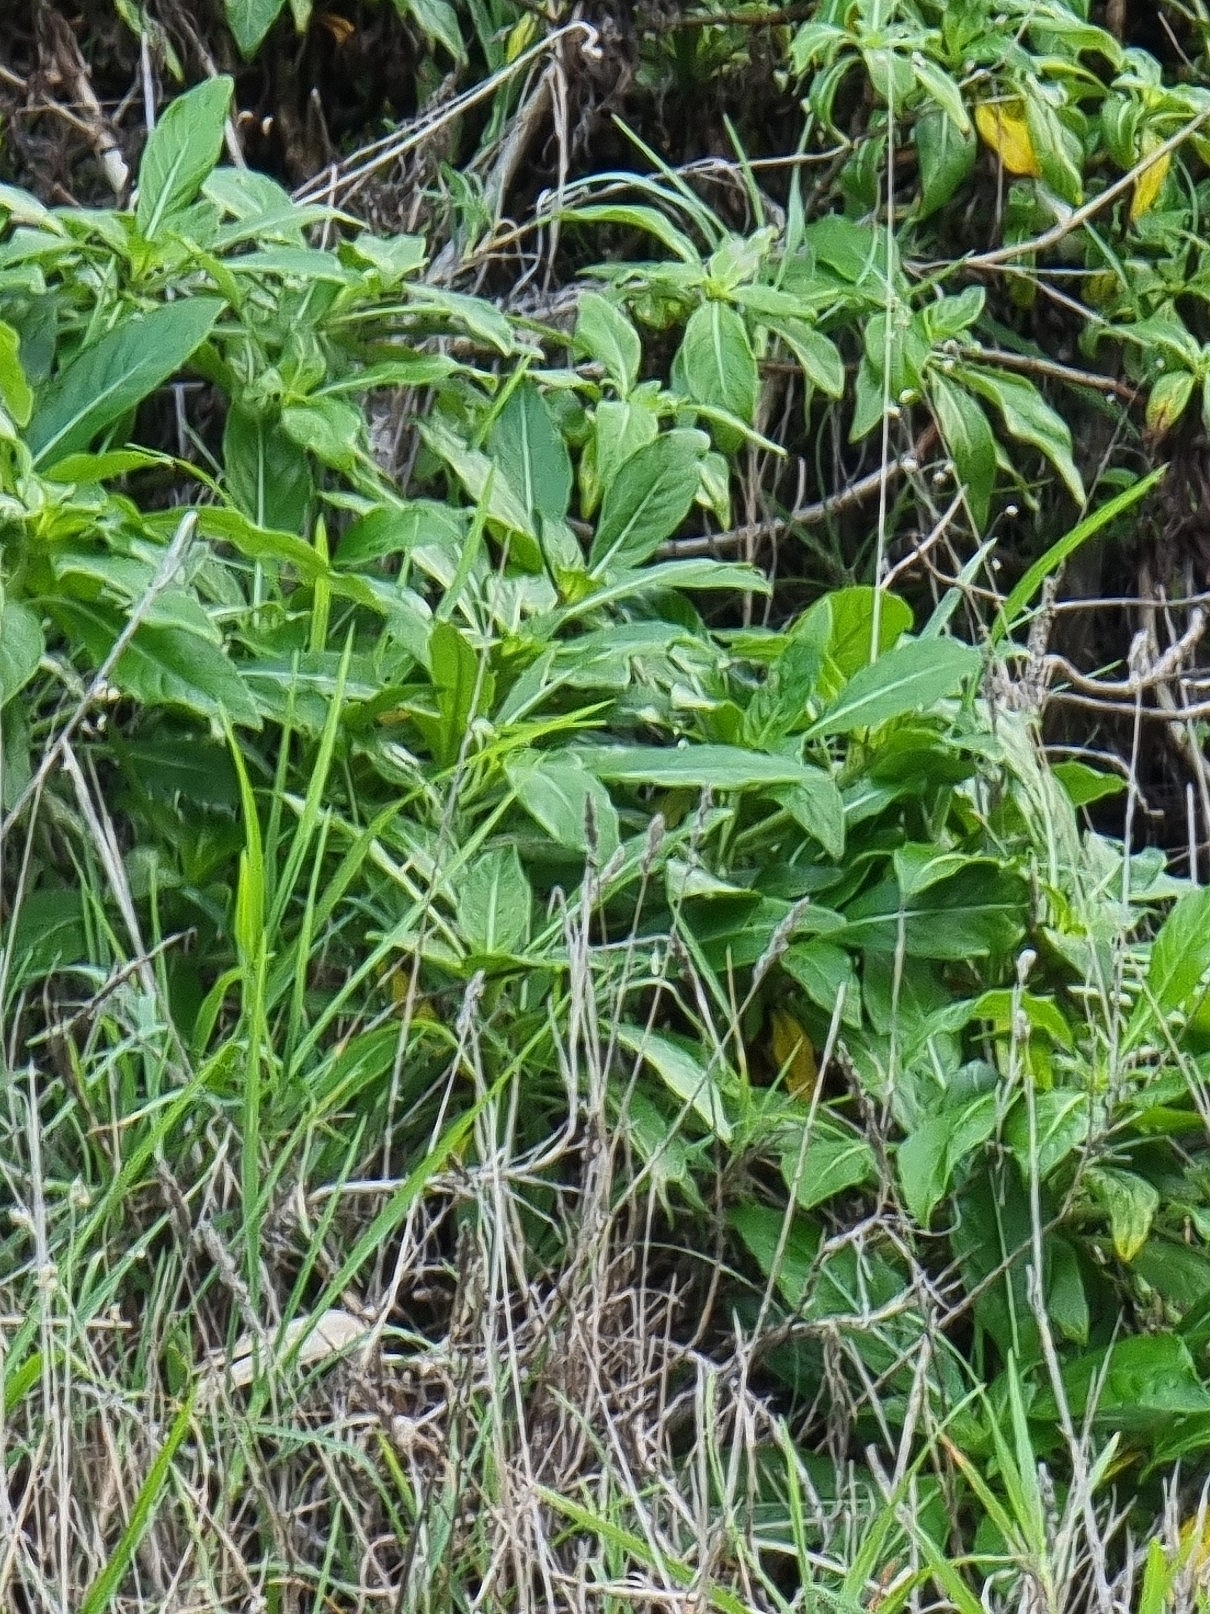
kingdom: Plantae
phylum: Tracheophyta
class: Magnoliopsida
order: Gentianales
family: Rubiaceae
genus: Phyllis
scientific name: Phyllis nobla
